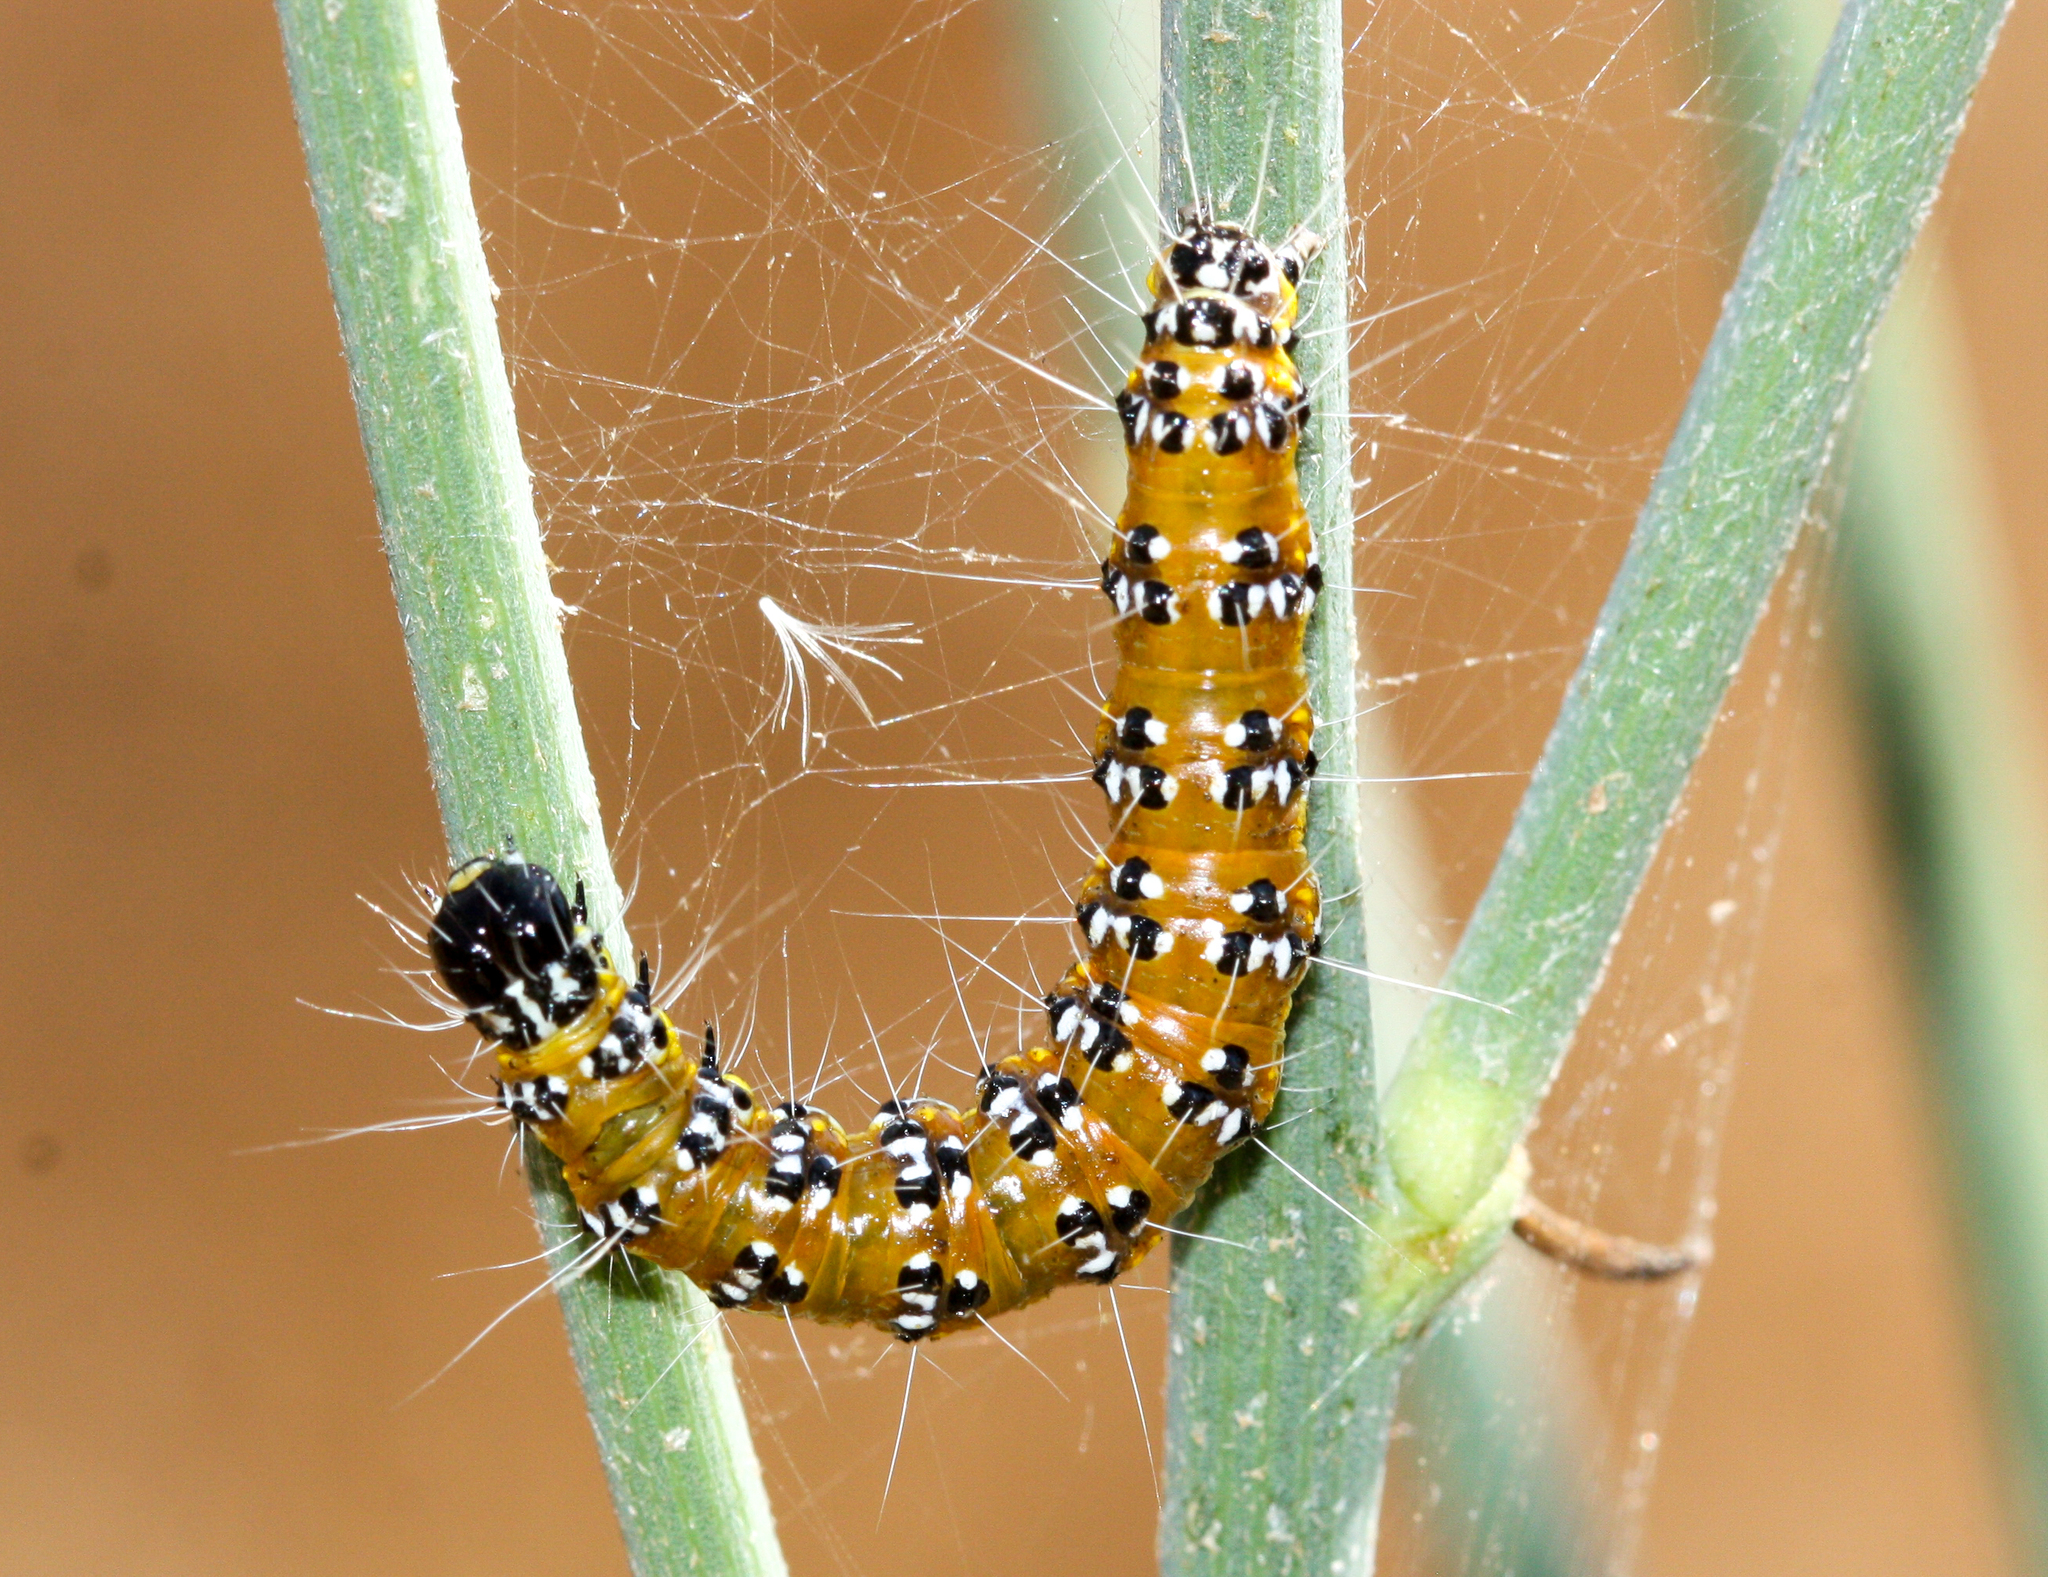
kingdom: Animalia
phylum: Arthropoda
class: Insecta
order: Lepidoptera
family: Crambidae
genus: Uresiphita
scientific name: Uresiphita reversalis
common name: Genista broom moth
